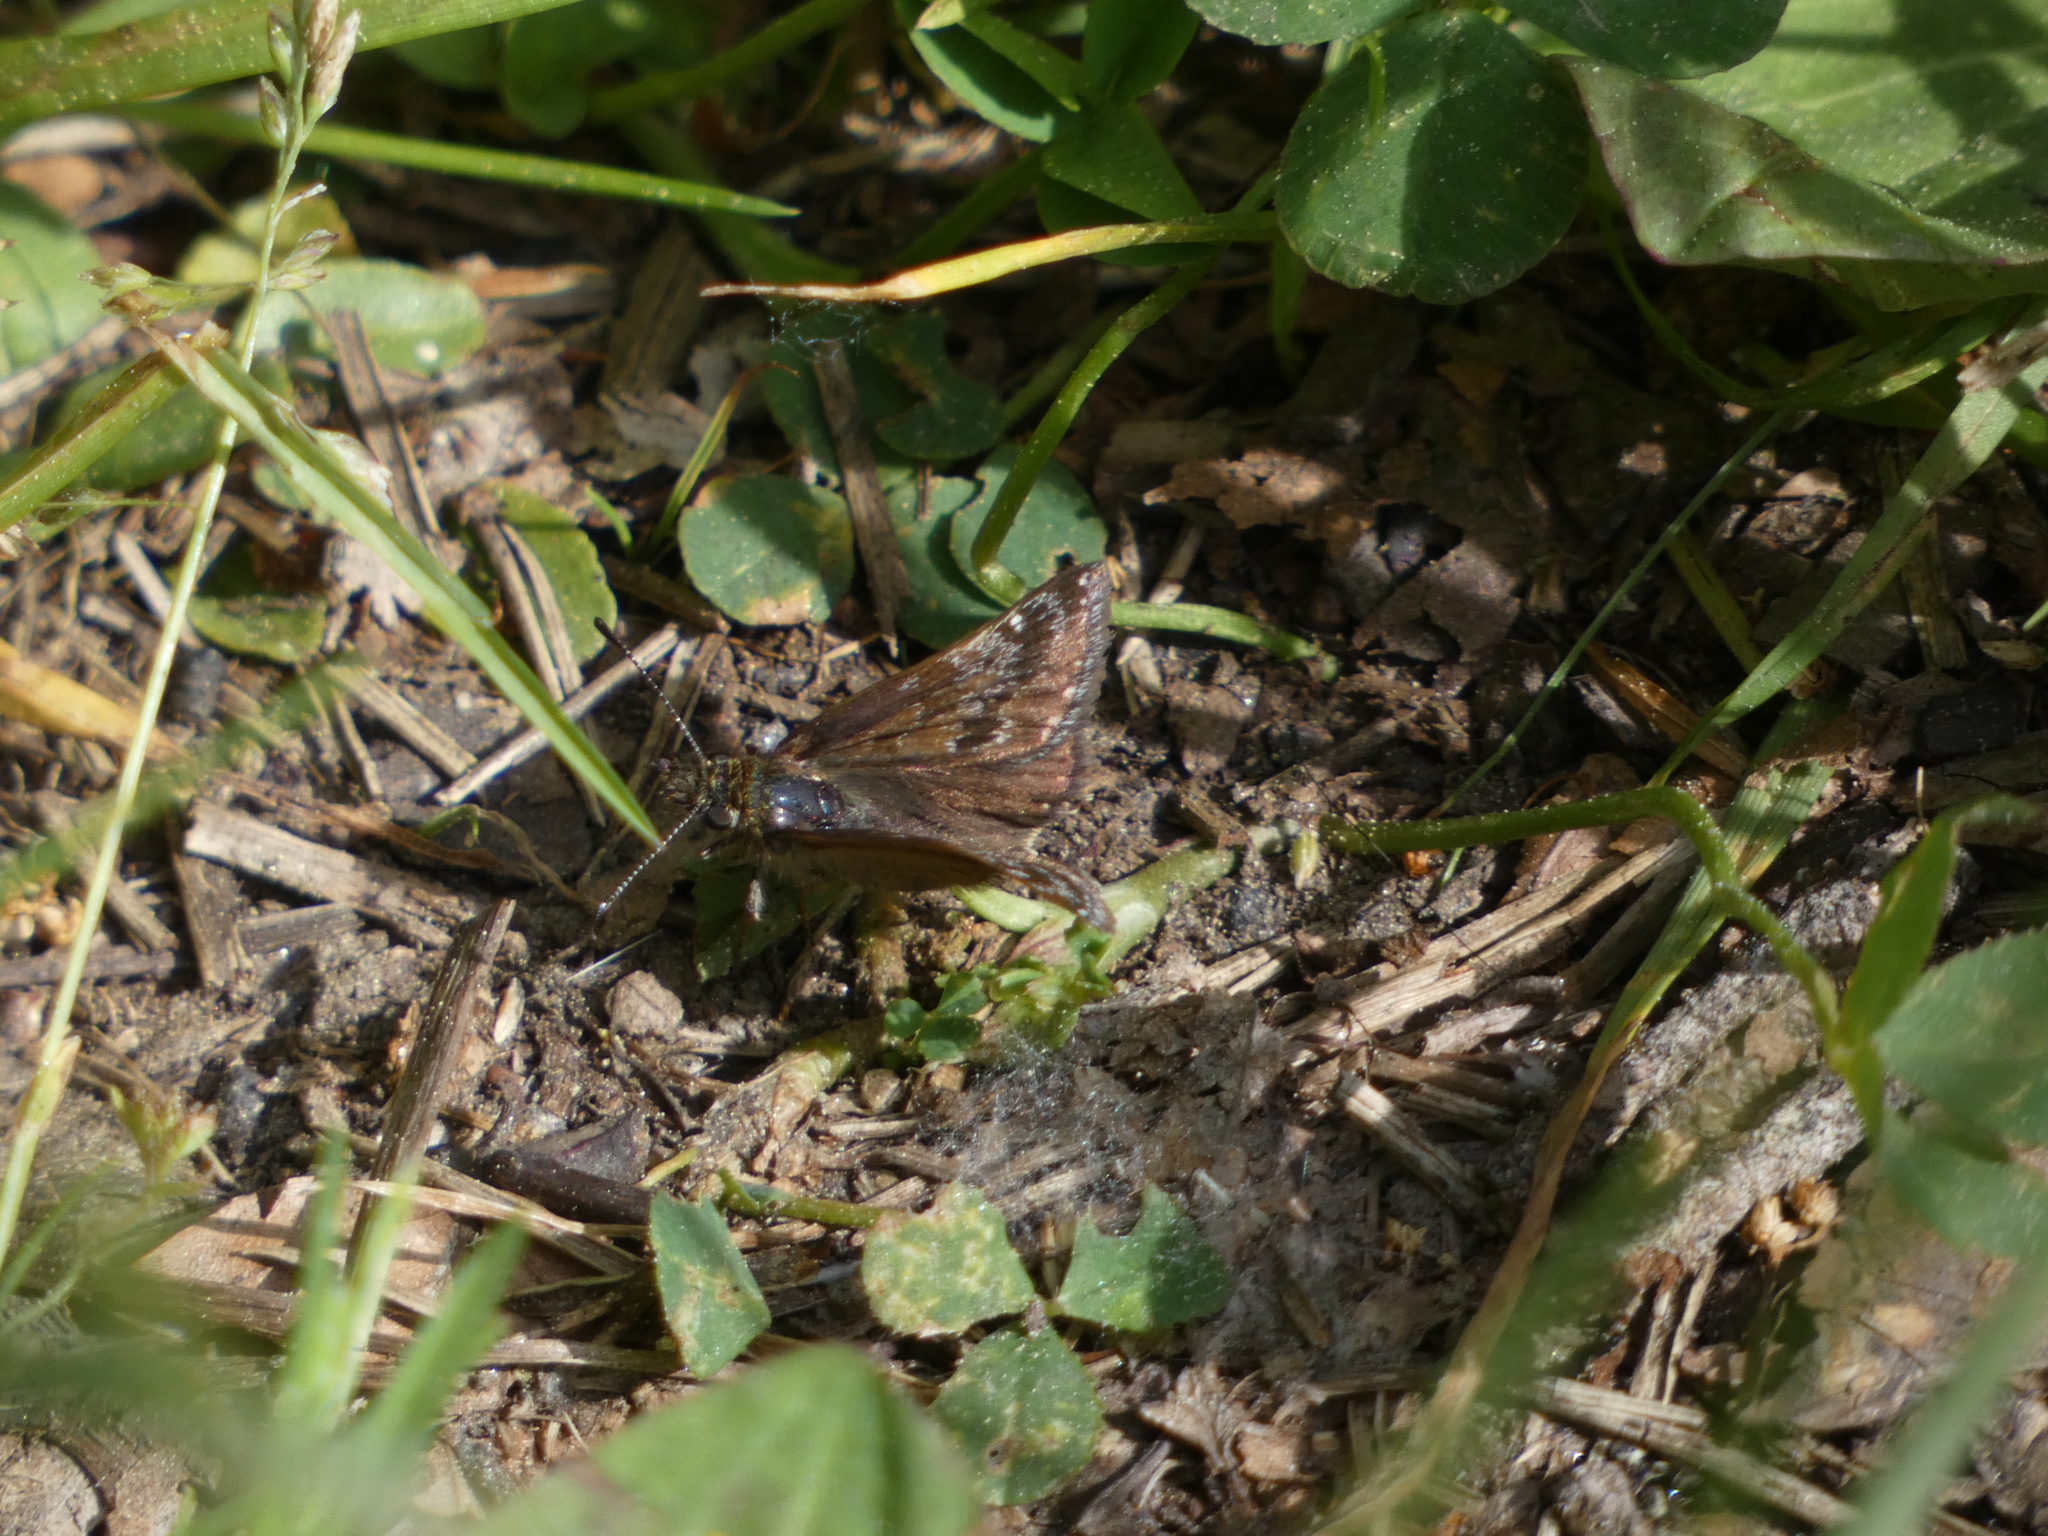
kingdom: Animalia
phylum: Arthropoda
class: Insecta
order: Lepidoptera
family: Hesperiidae
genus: Erynnis
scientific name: Erynnis tages
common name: Dingy skipper
